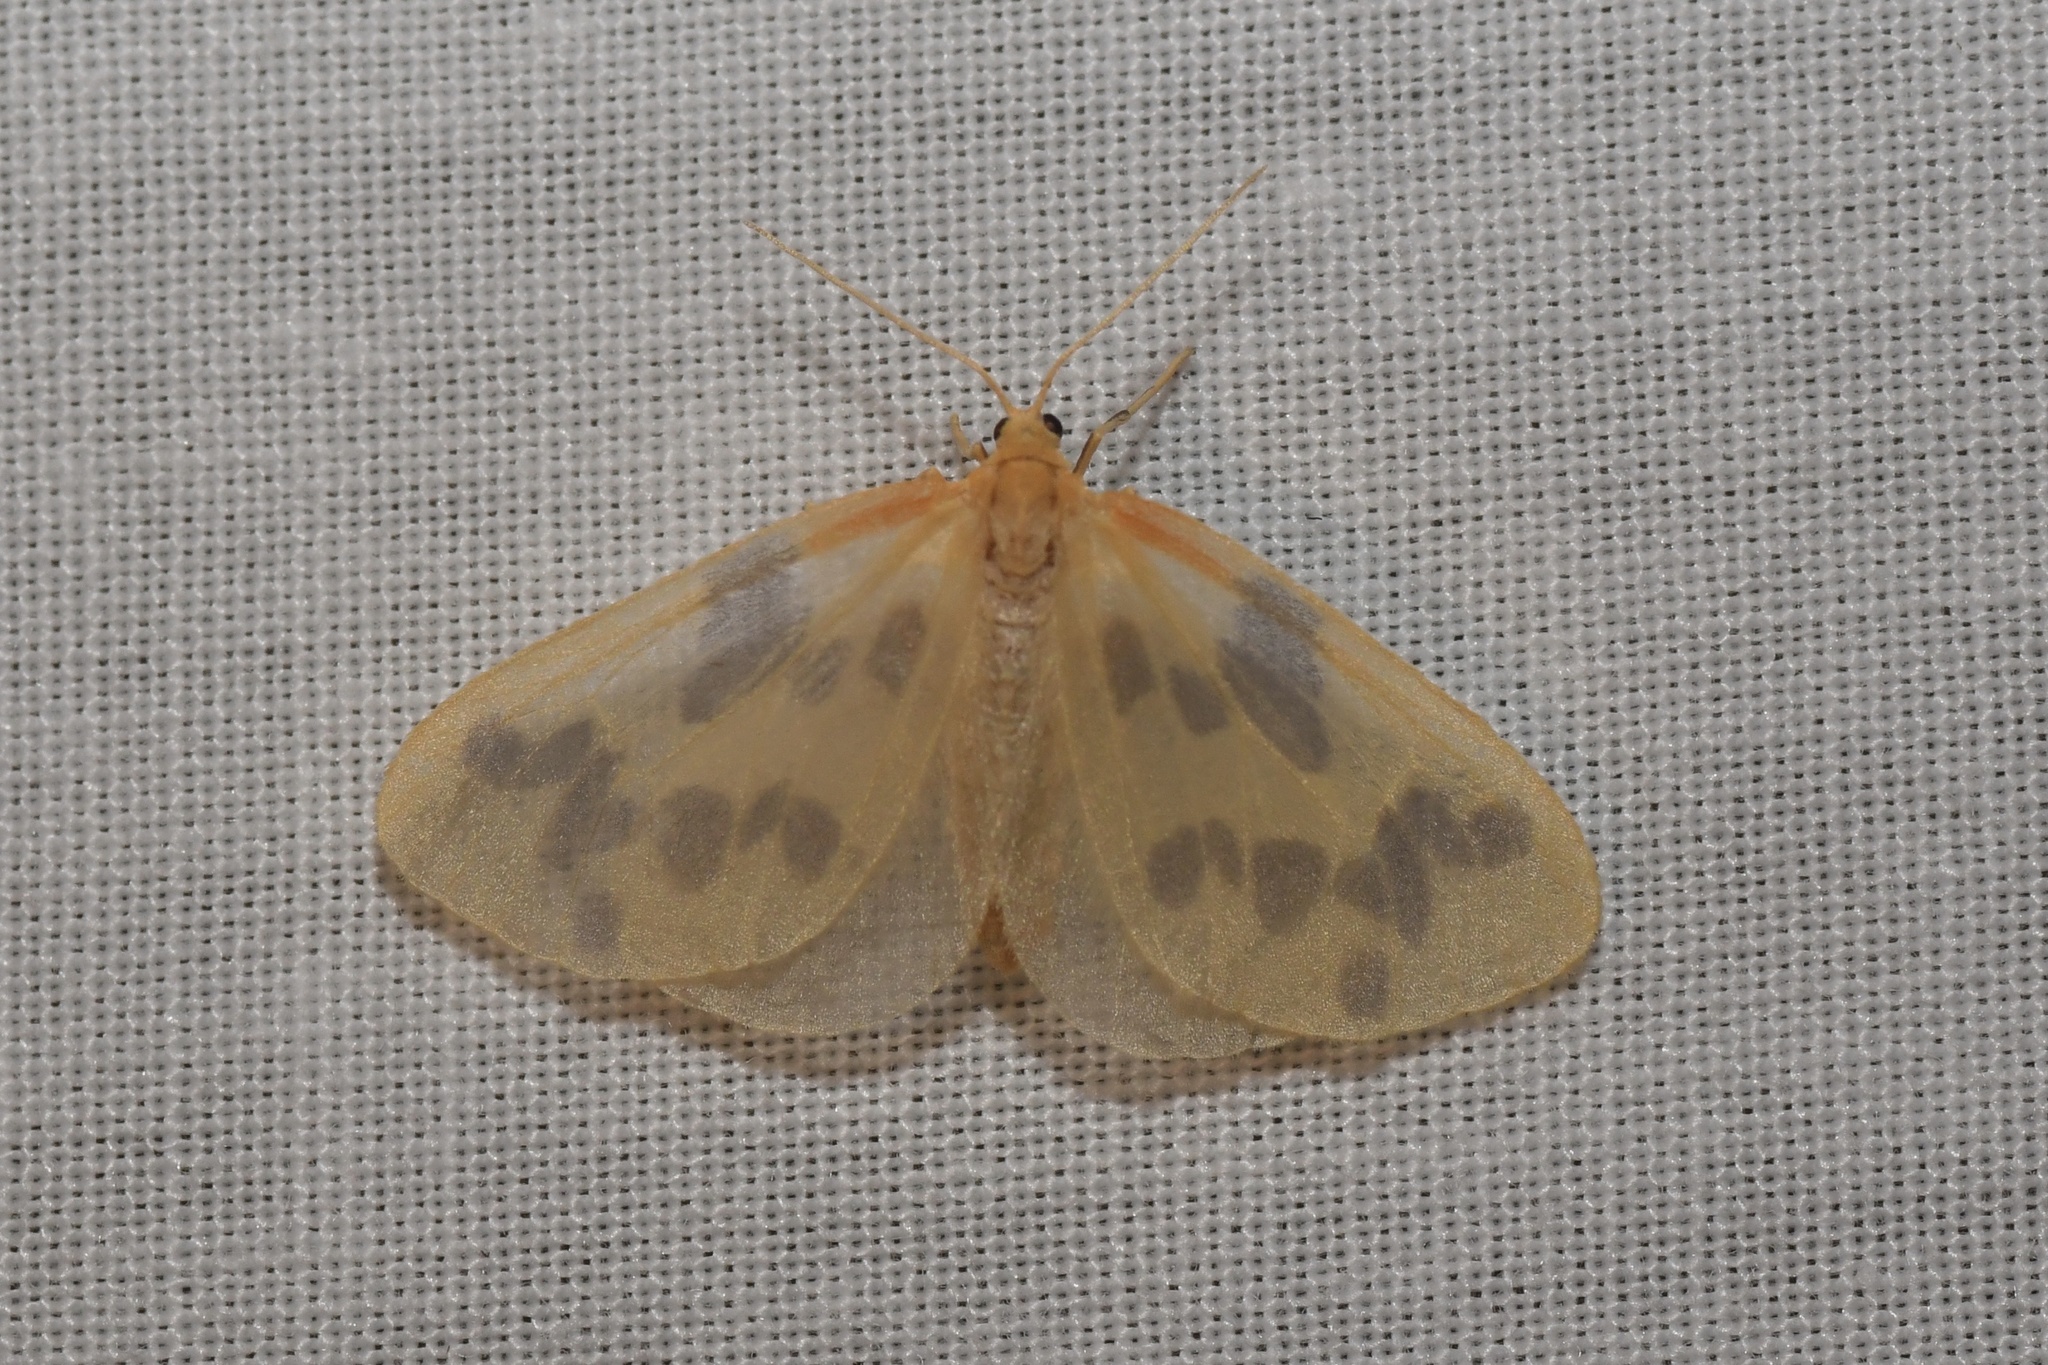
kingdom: Animalia
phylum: Arthropoda
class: Insecta
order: Lepidoptera
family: Geometridae
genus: Eubaphe
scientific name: Eubaphe mendica
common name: Beggar
